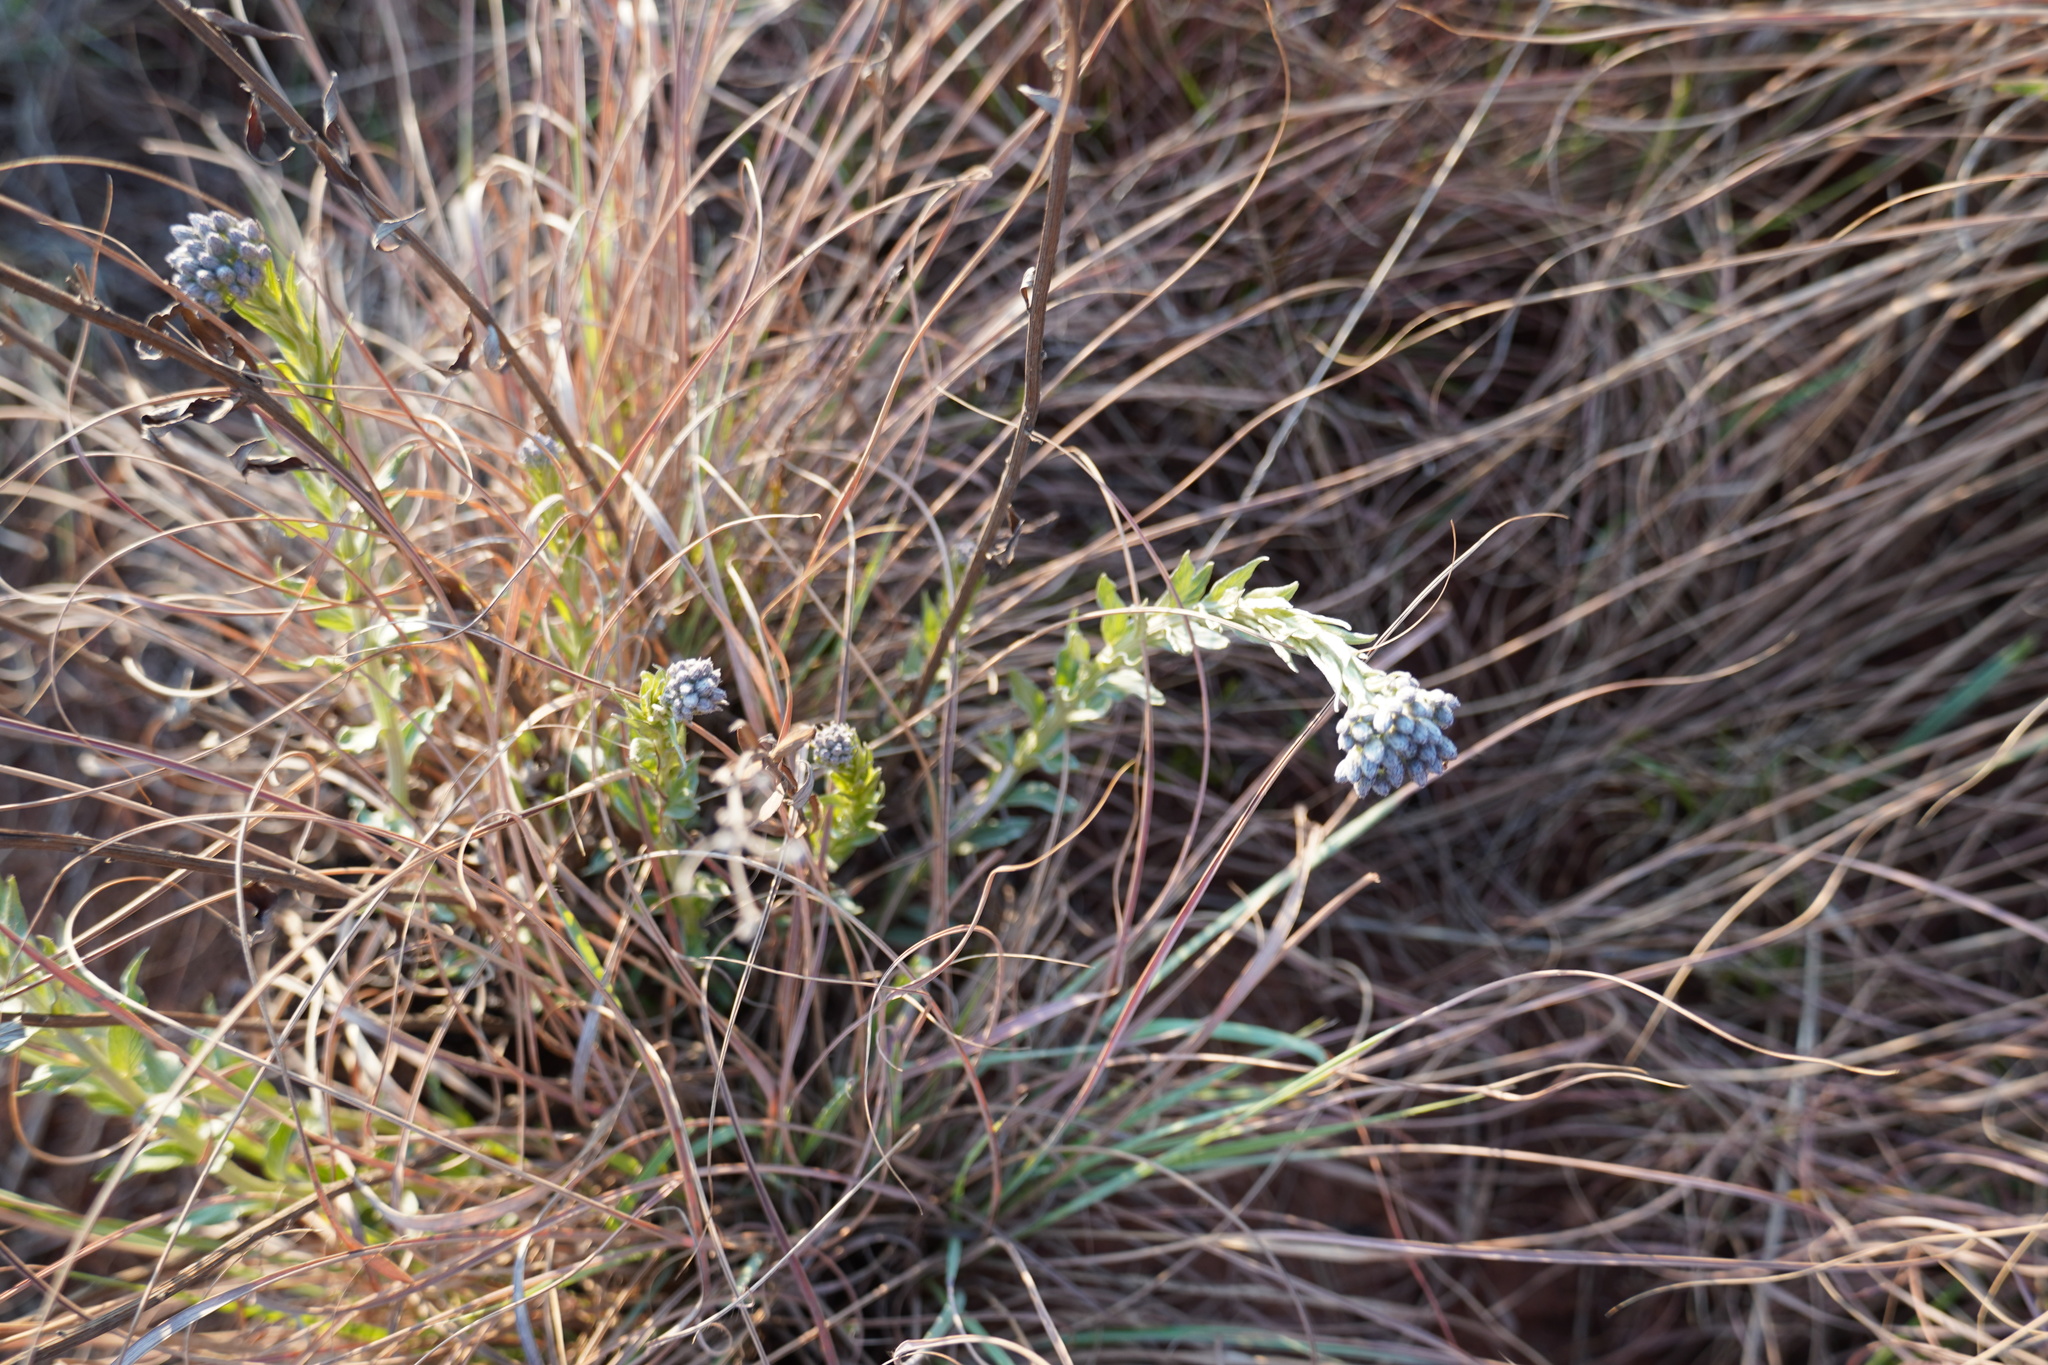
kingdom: Plantae
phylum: Tracheophyta
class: Magnoliopsida
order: Asterales
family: Asteraceae
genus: Hilliardiella
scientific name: Hilliardiella oligocephala
